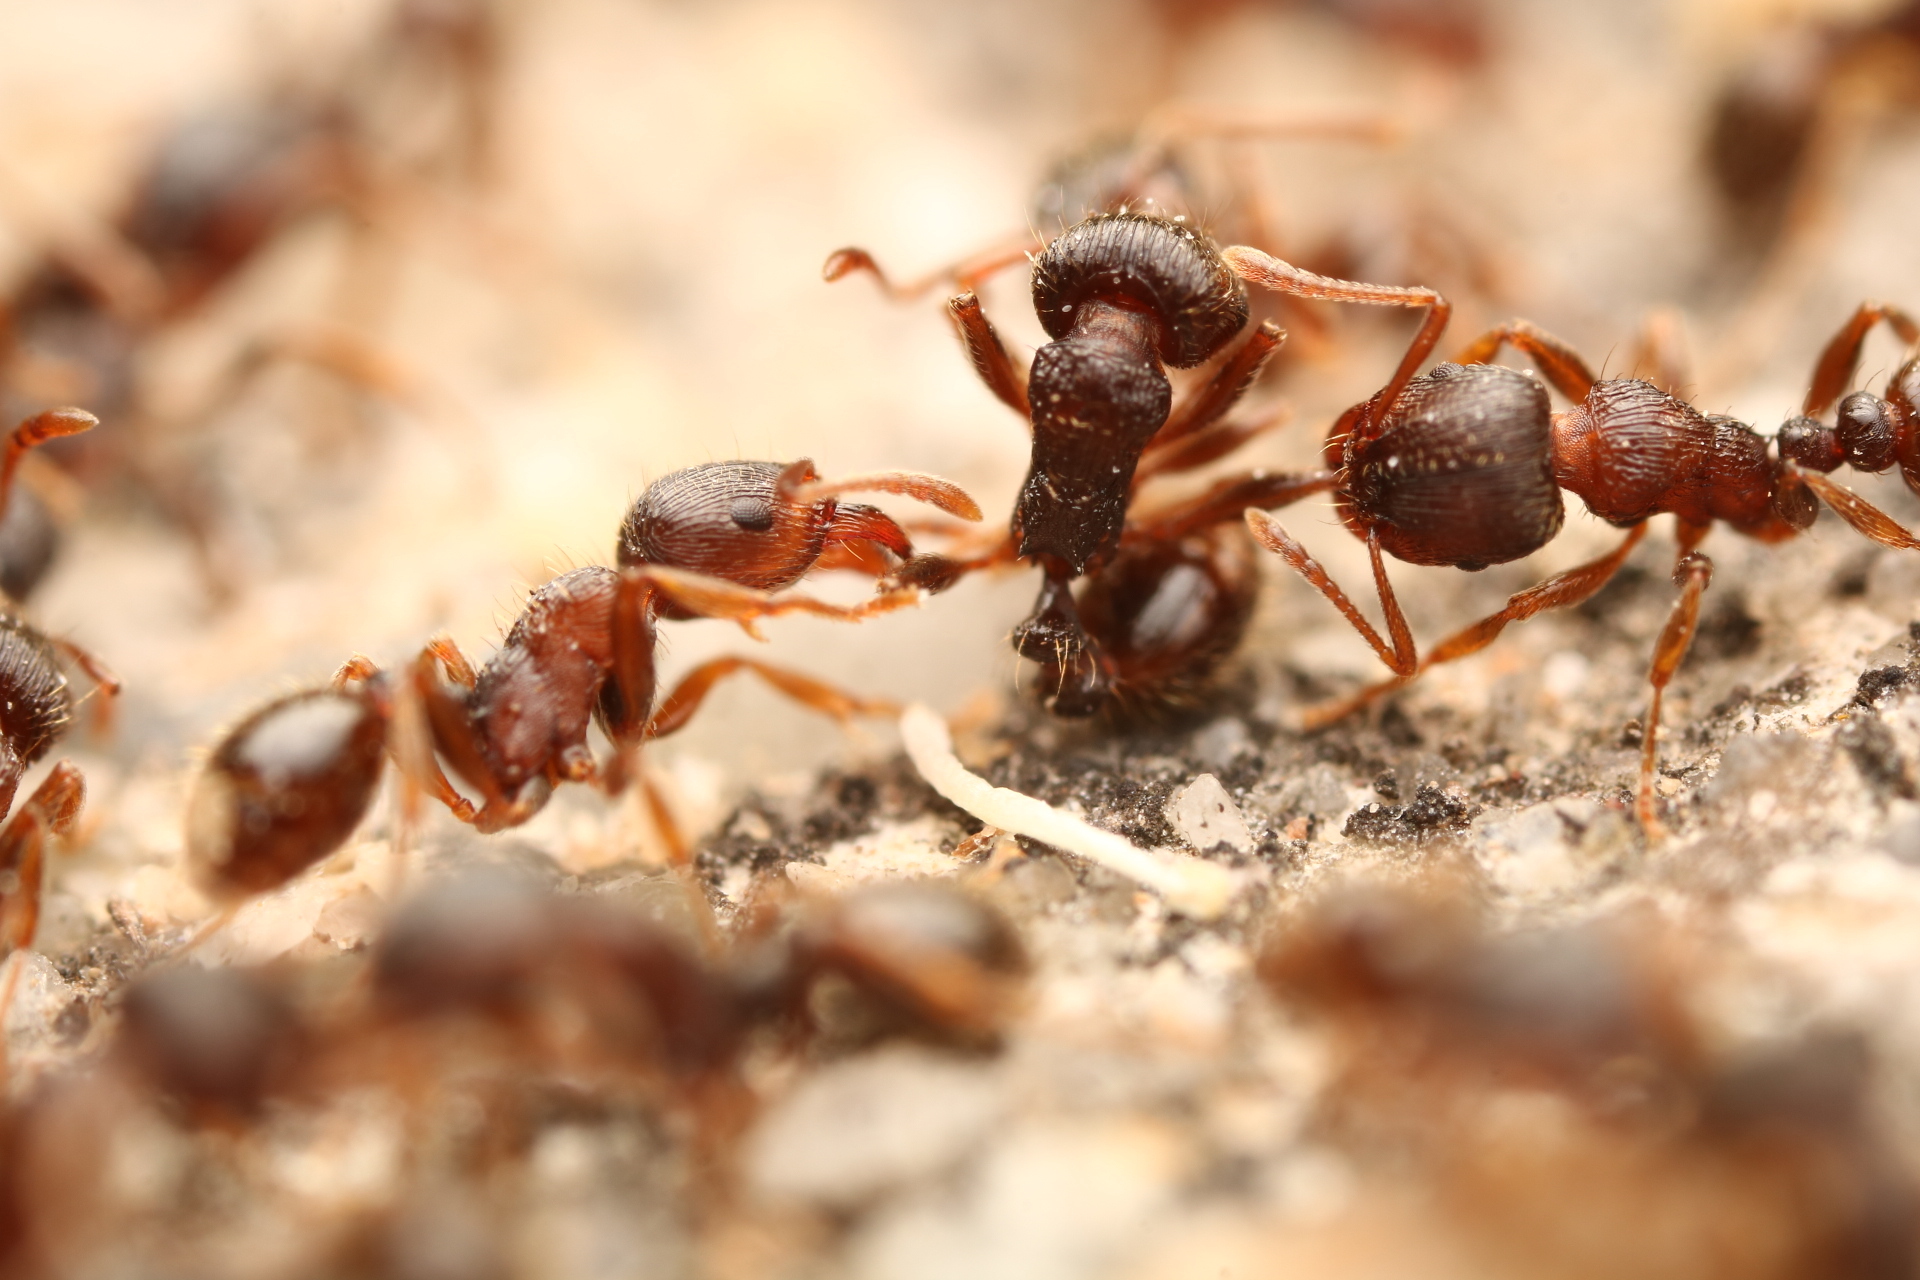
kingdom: Animalia
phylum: Arthropoda
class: Insecta
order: Hymenoptera
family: Formicidae
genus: Tetramorium
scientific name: Tetramorium immigrans
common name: Pavement ant
